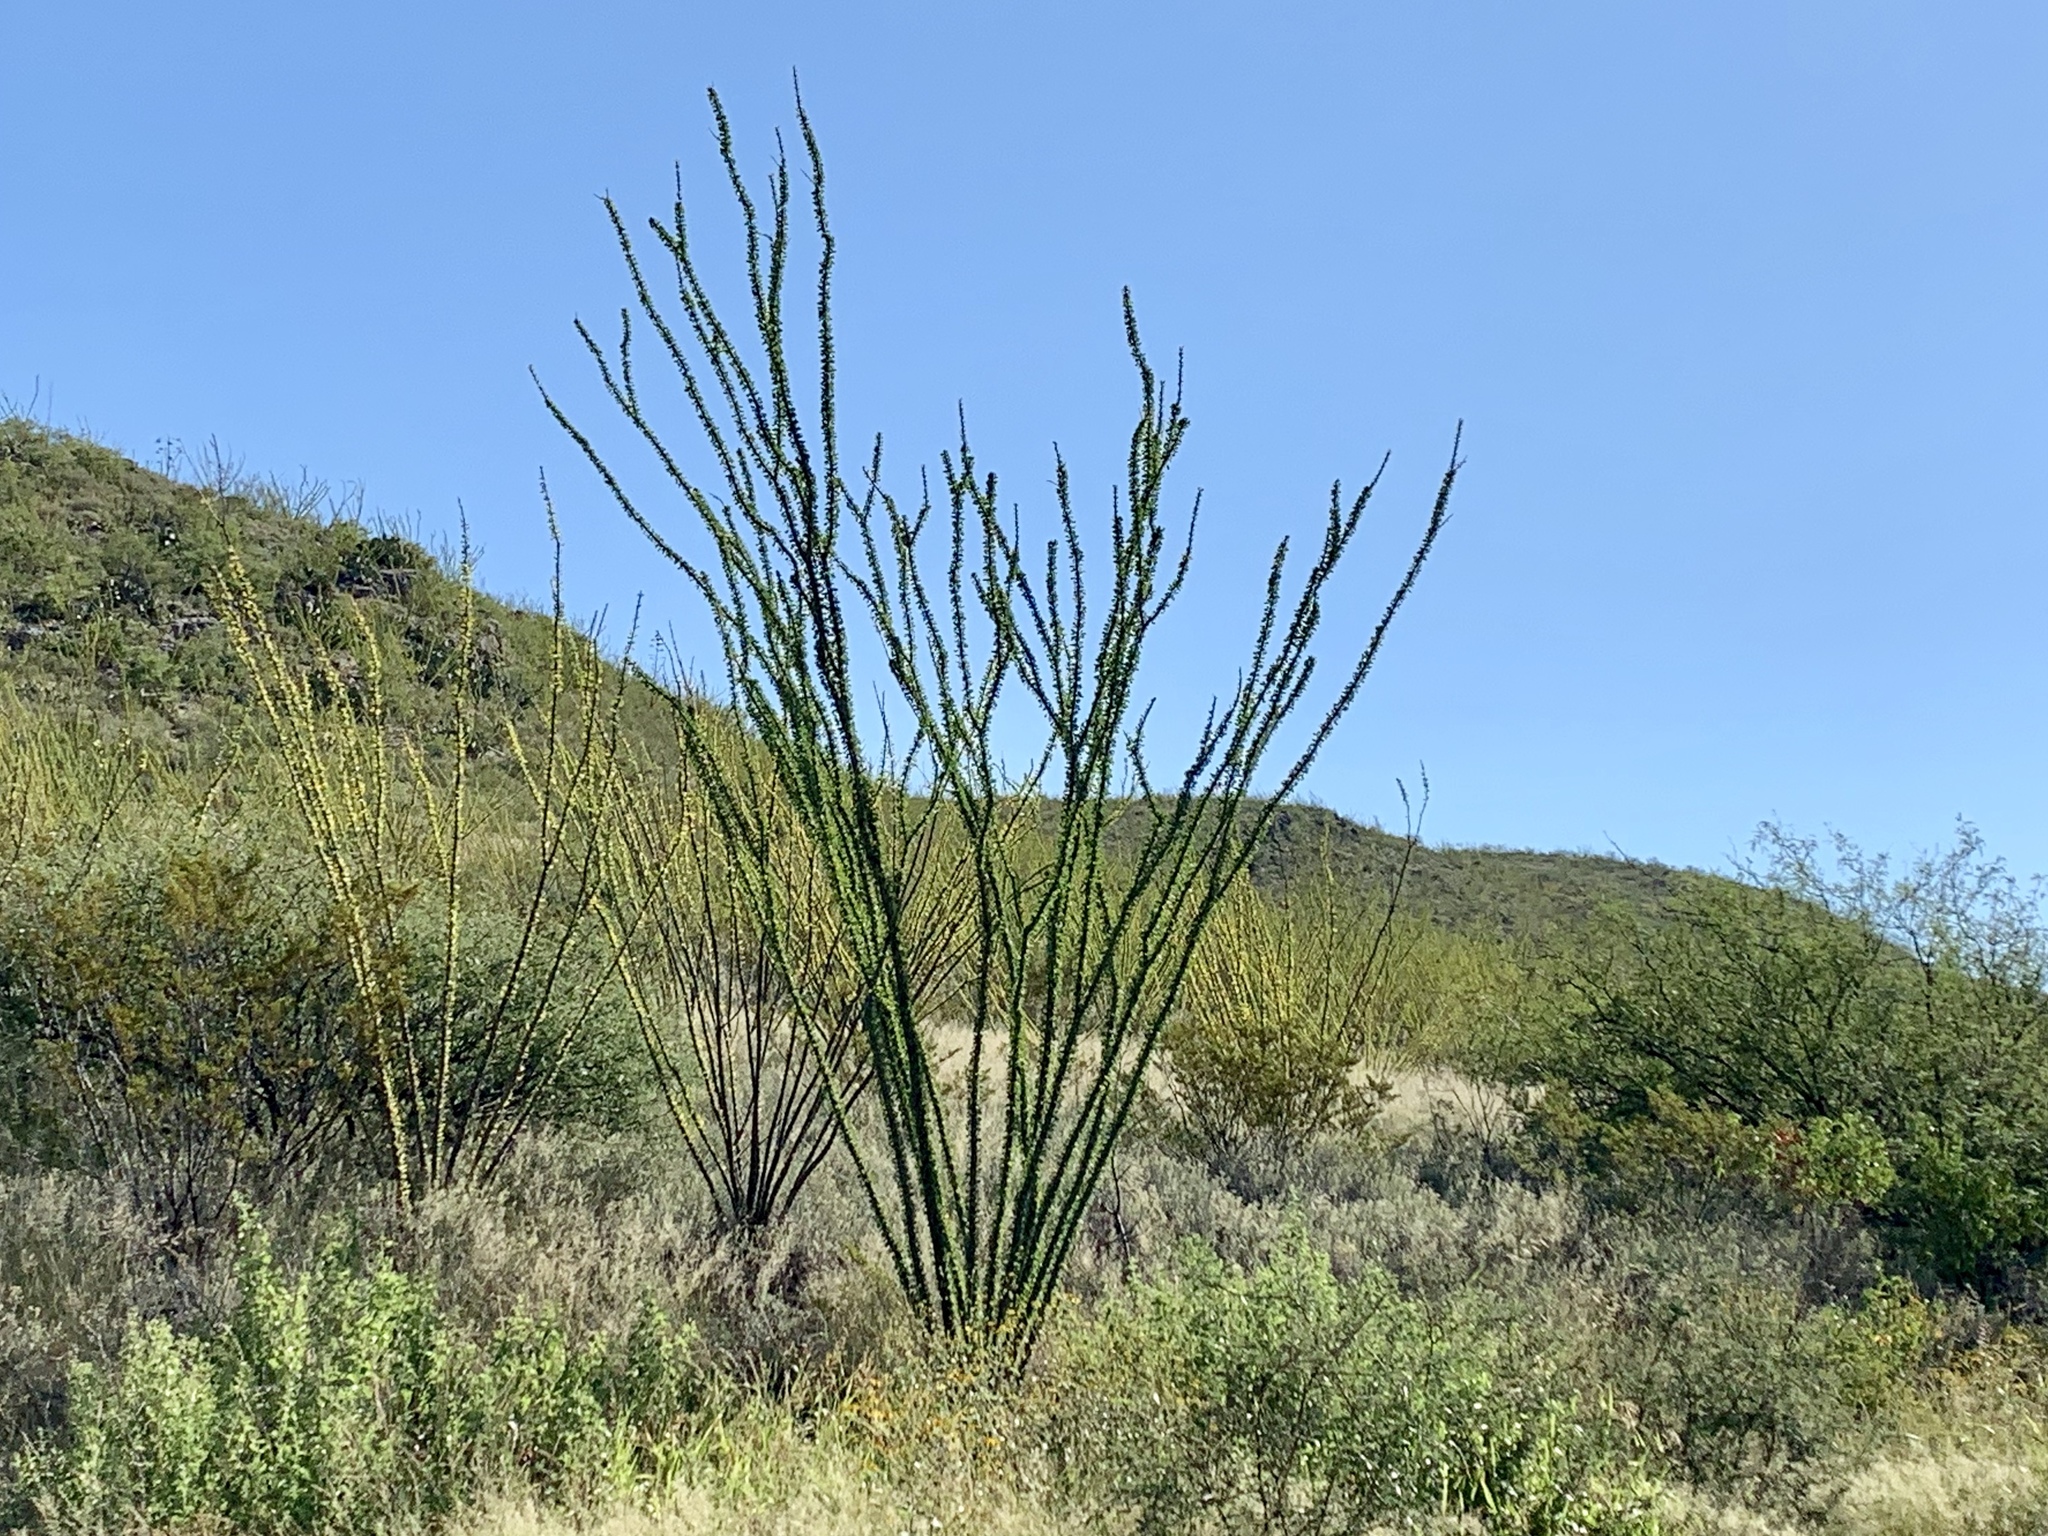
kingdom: Plantae
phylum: Tracheophyta
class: Magnoliopsida
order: Ericales
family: Fouquieriaceae
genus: Fouquieria
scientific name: Fouquieria splendens
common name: Vine-cactus
